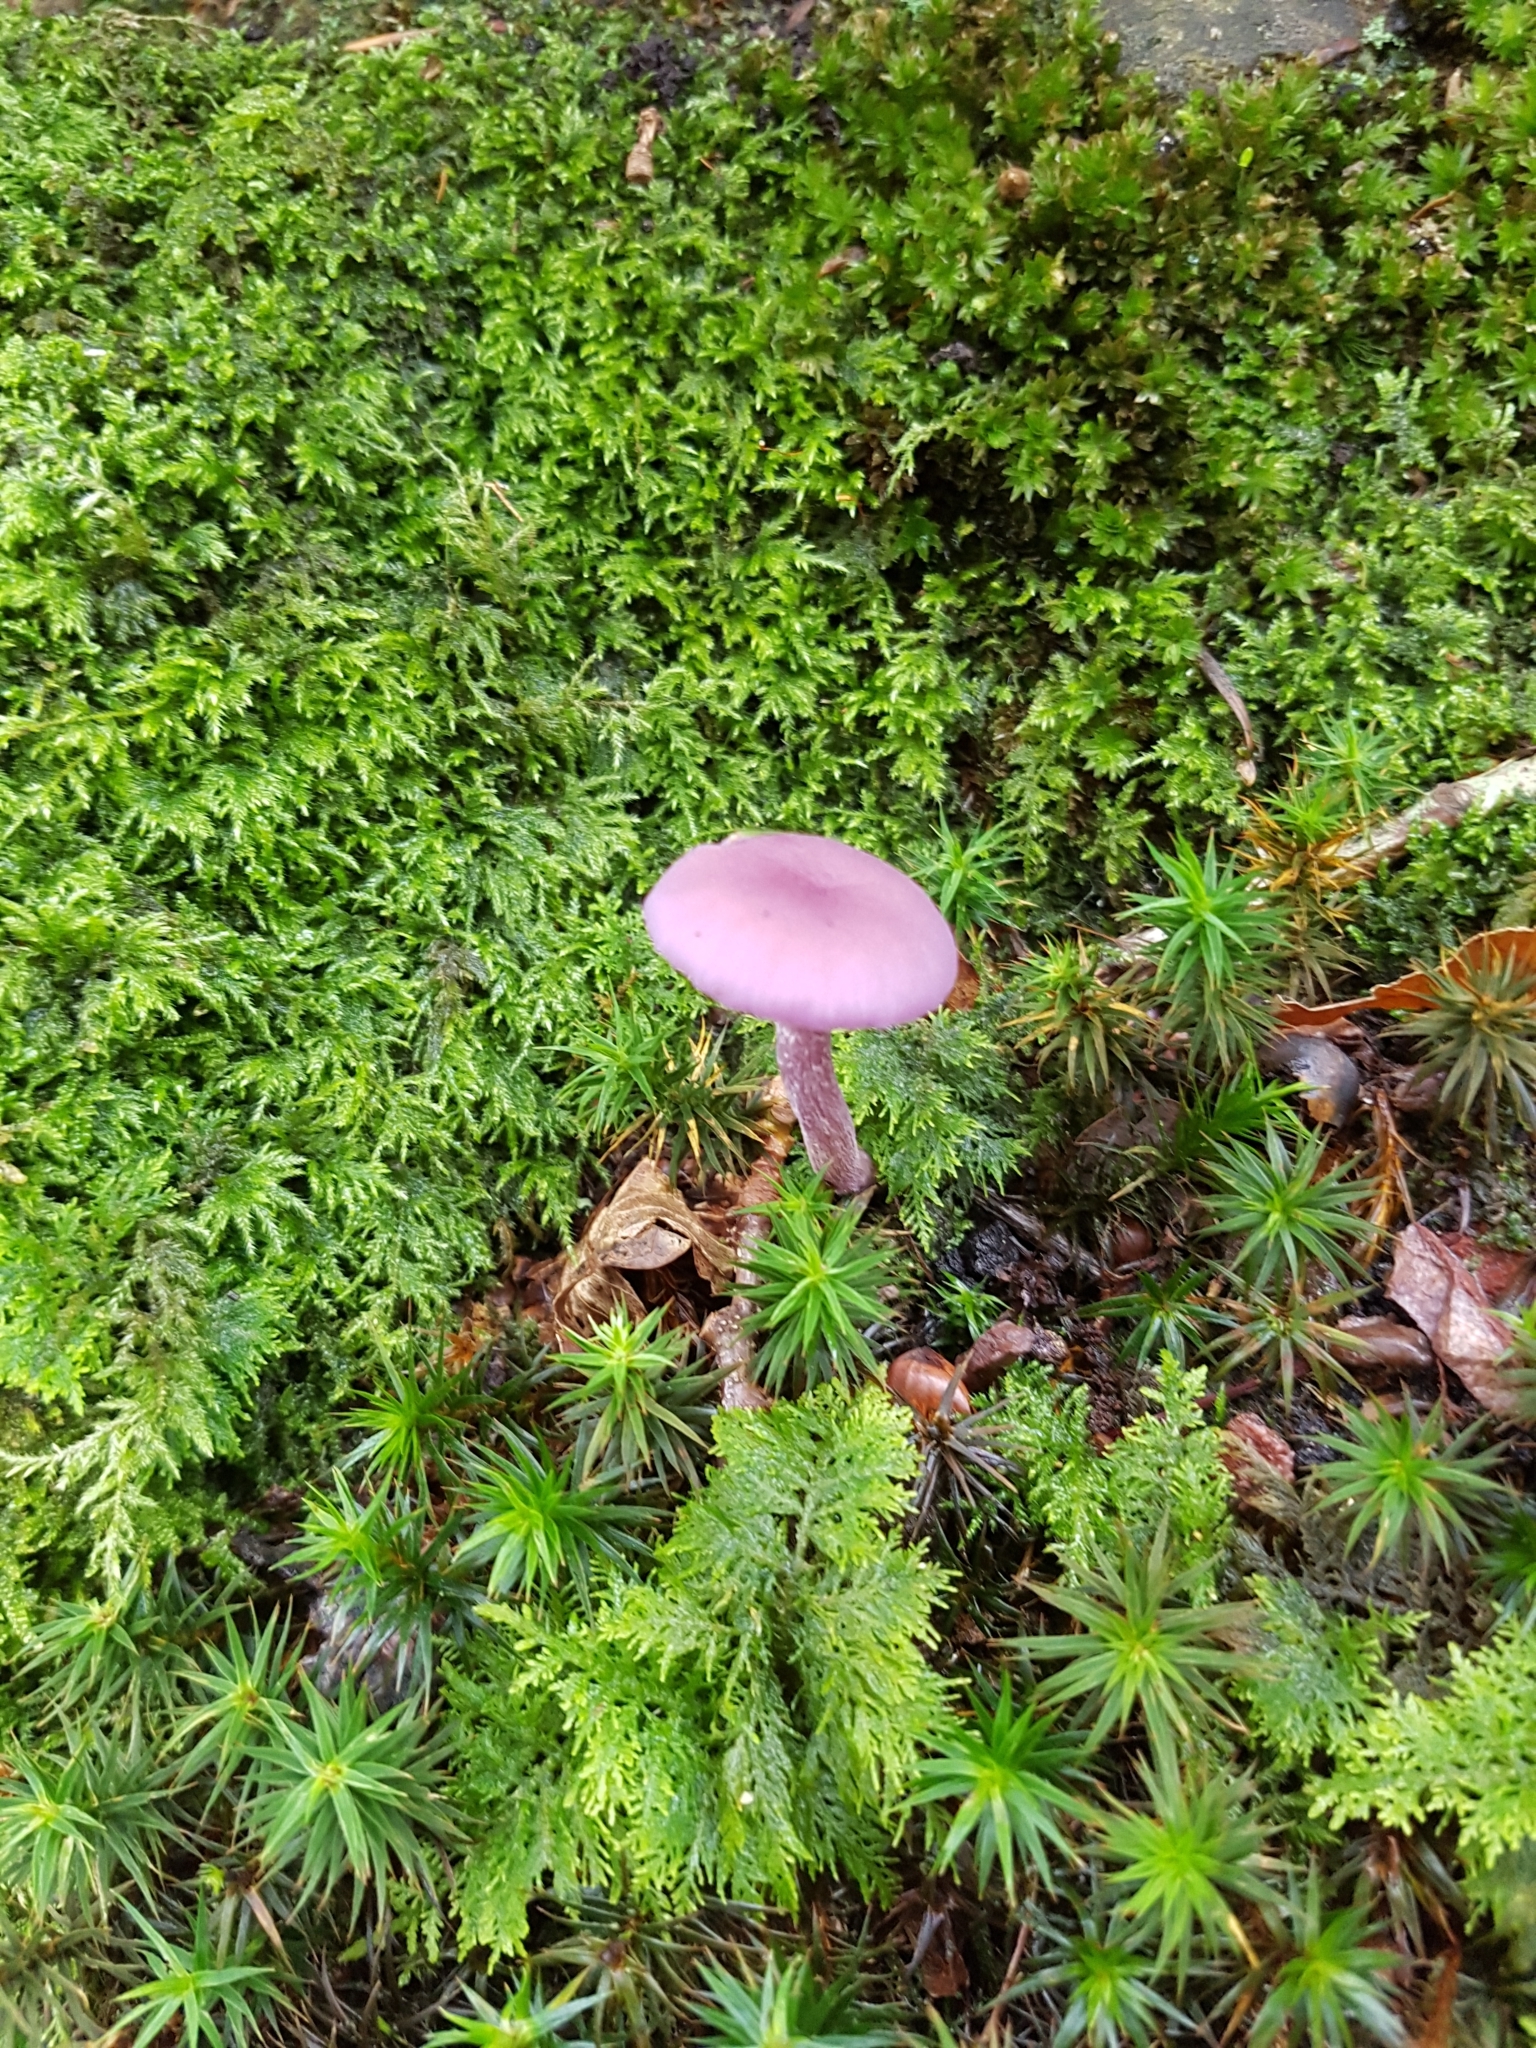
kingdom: Fungi
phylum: Basidiomycota
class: Agaricomycetes
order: Agaricales
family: Hydnangiaceae
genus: Laccaria
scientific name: Laccaria amethystina
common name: Amethyst deceiver
